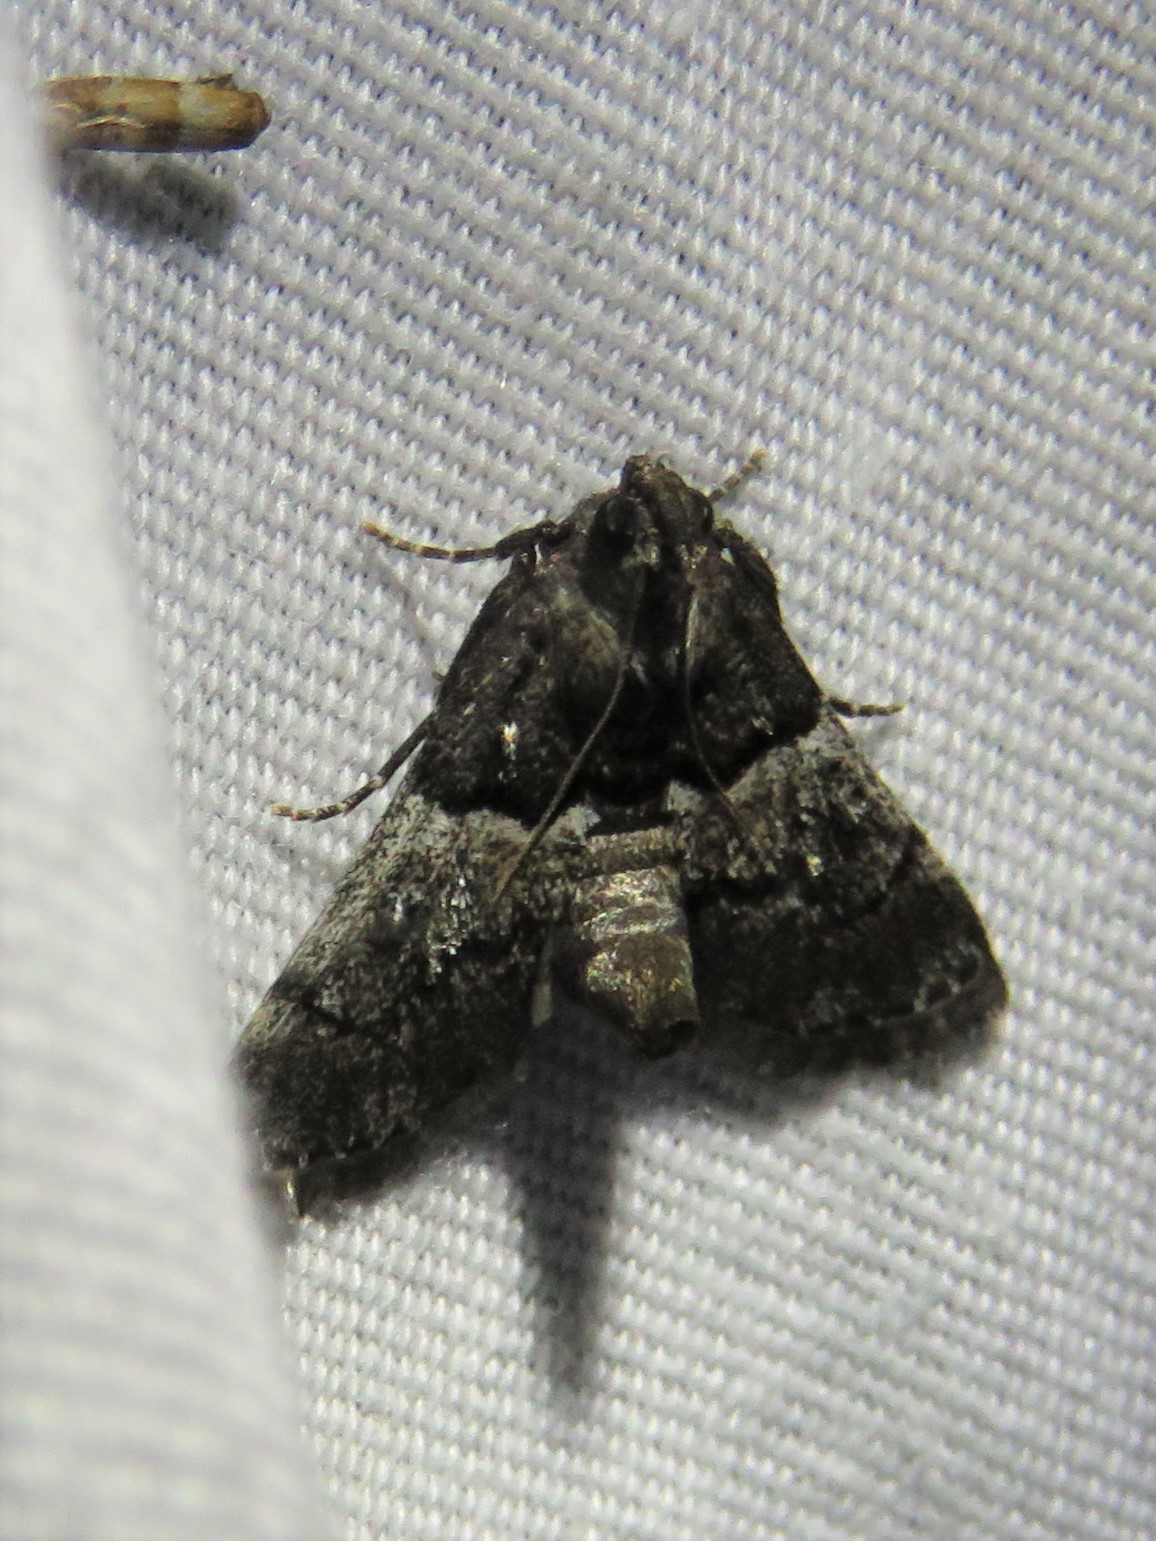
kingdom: Animalia
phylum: Arthropoda
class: Insecta
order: Lepidoptera
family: Pyralidae
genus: Macalla
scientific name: Macalla zelleri
